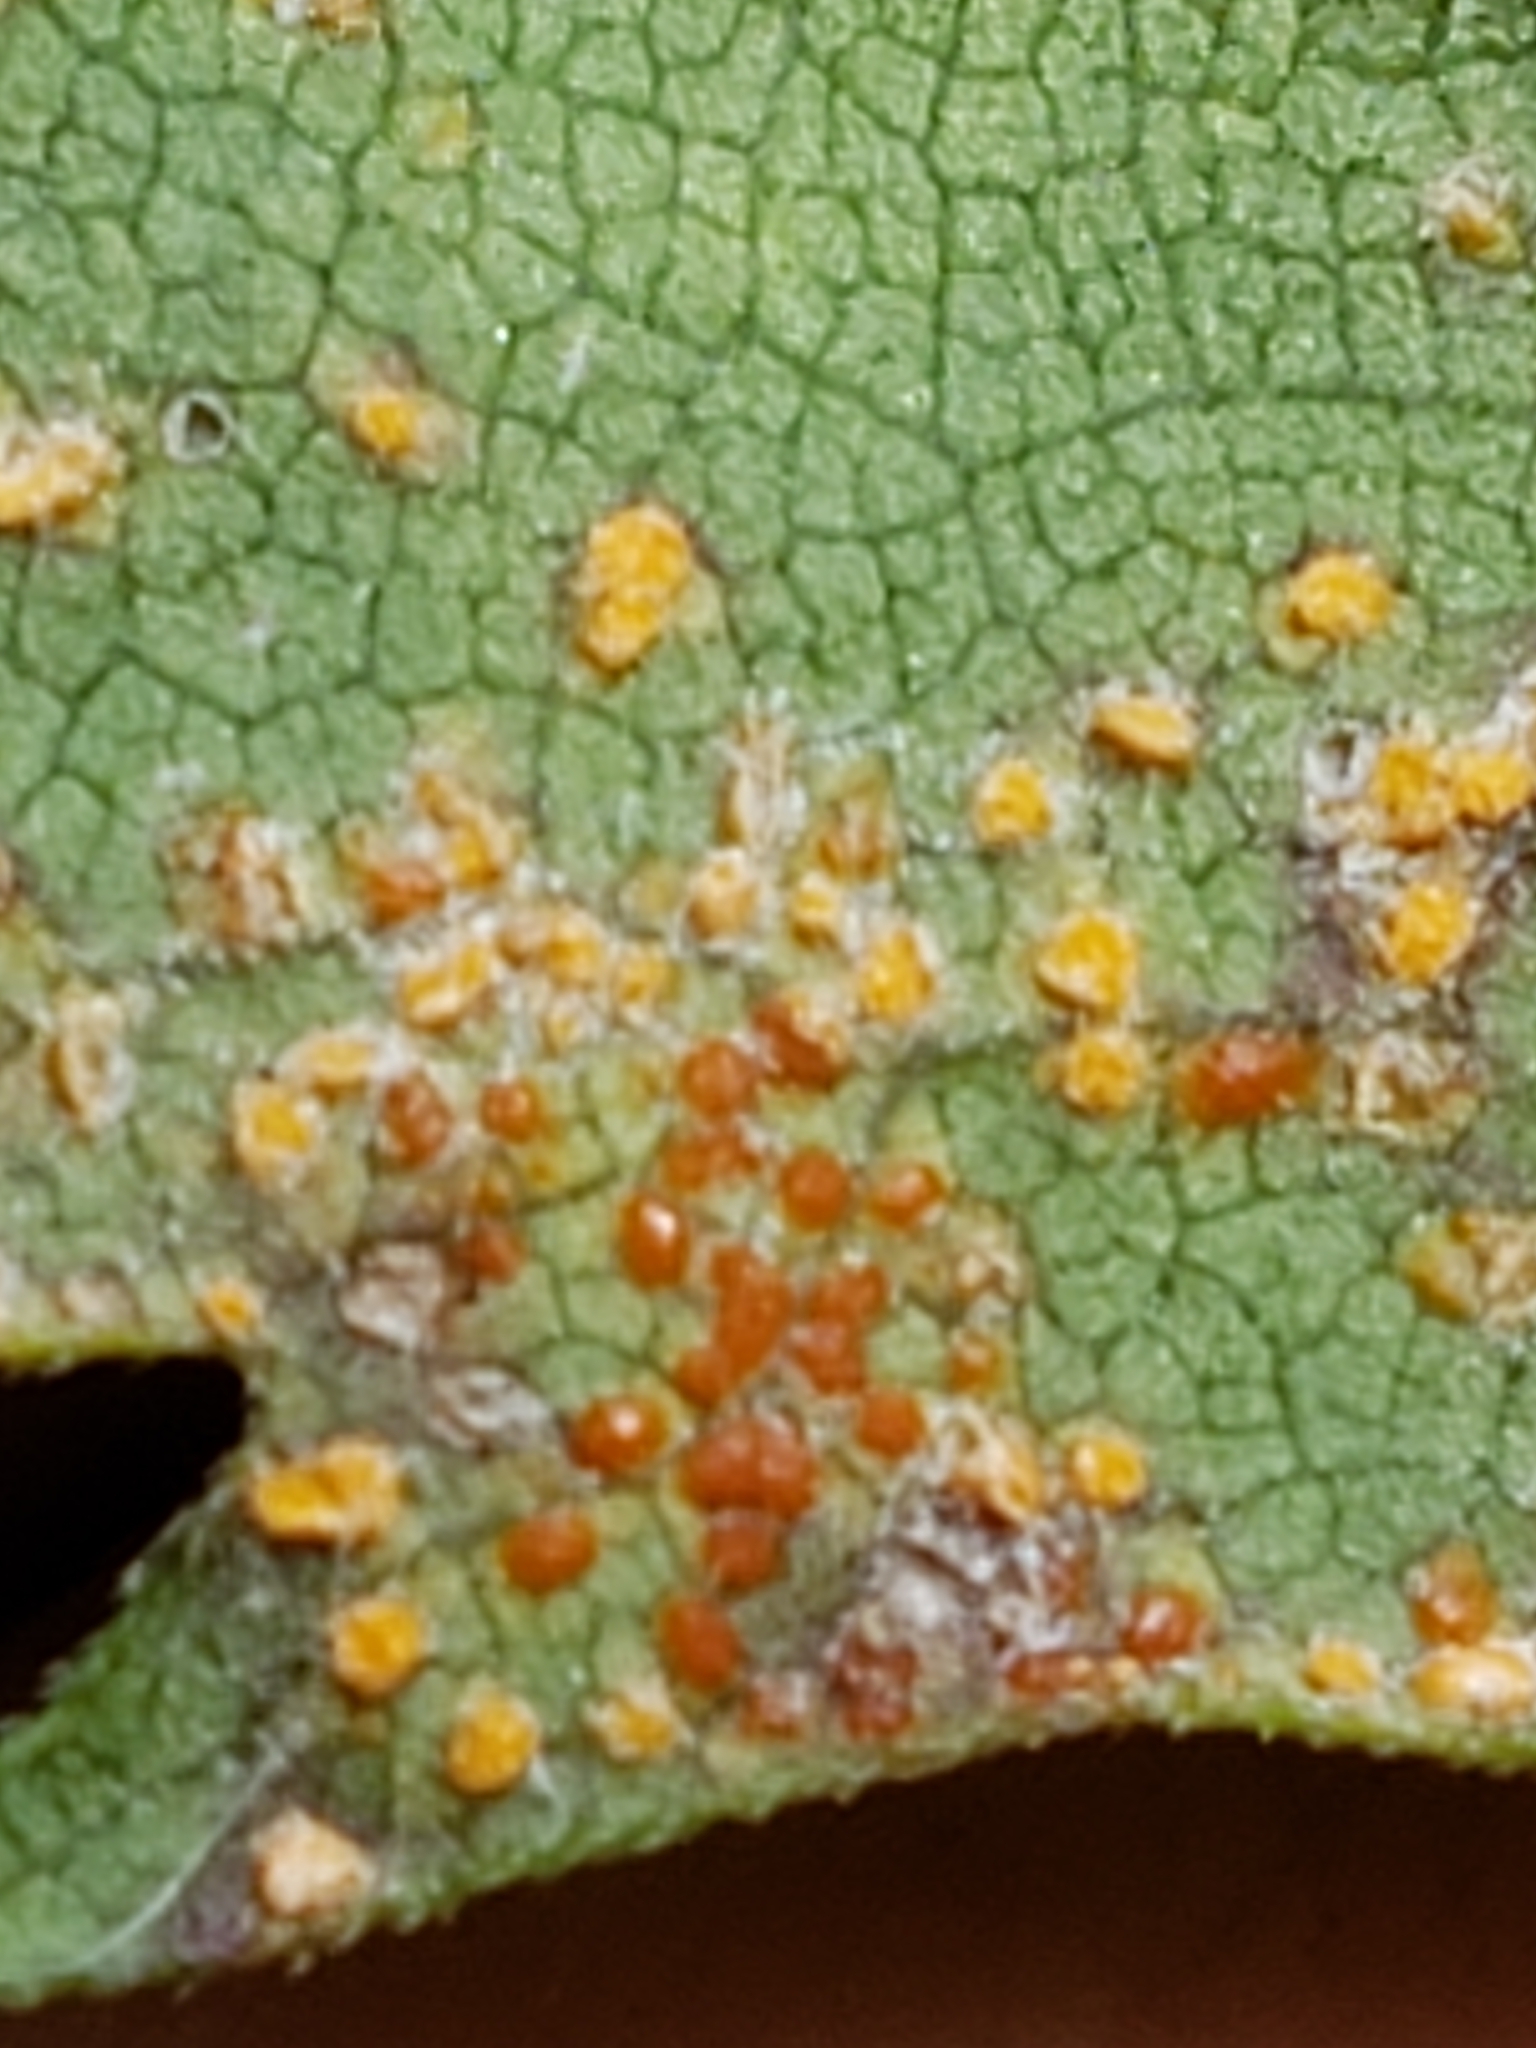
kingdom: Fungi
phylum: Basidiomycota
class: Pucciniomycetes
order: Pucciniales
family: Coleosporiaceae
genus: Coleosporium
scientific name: Coleosporium asterum
